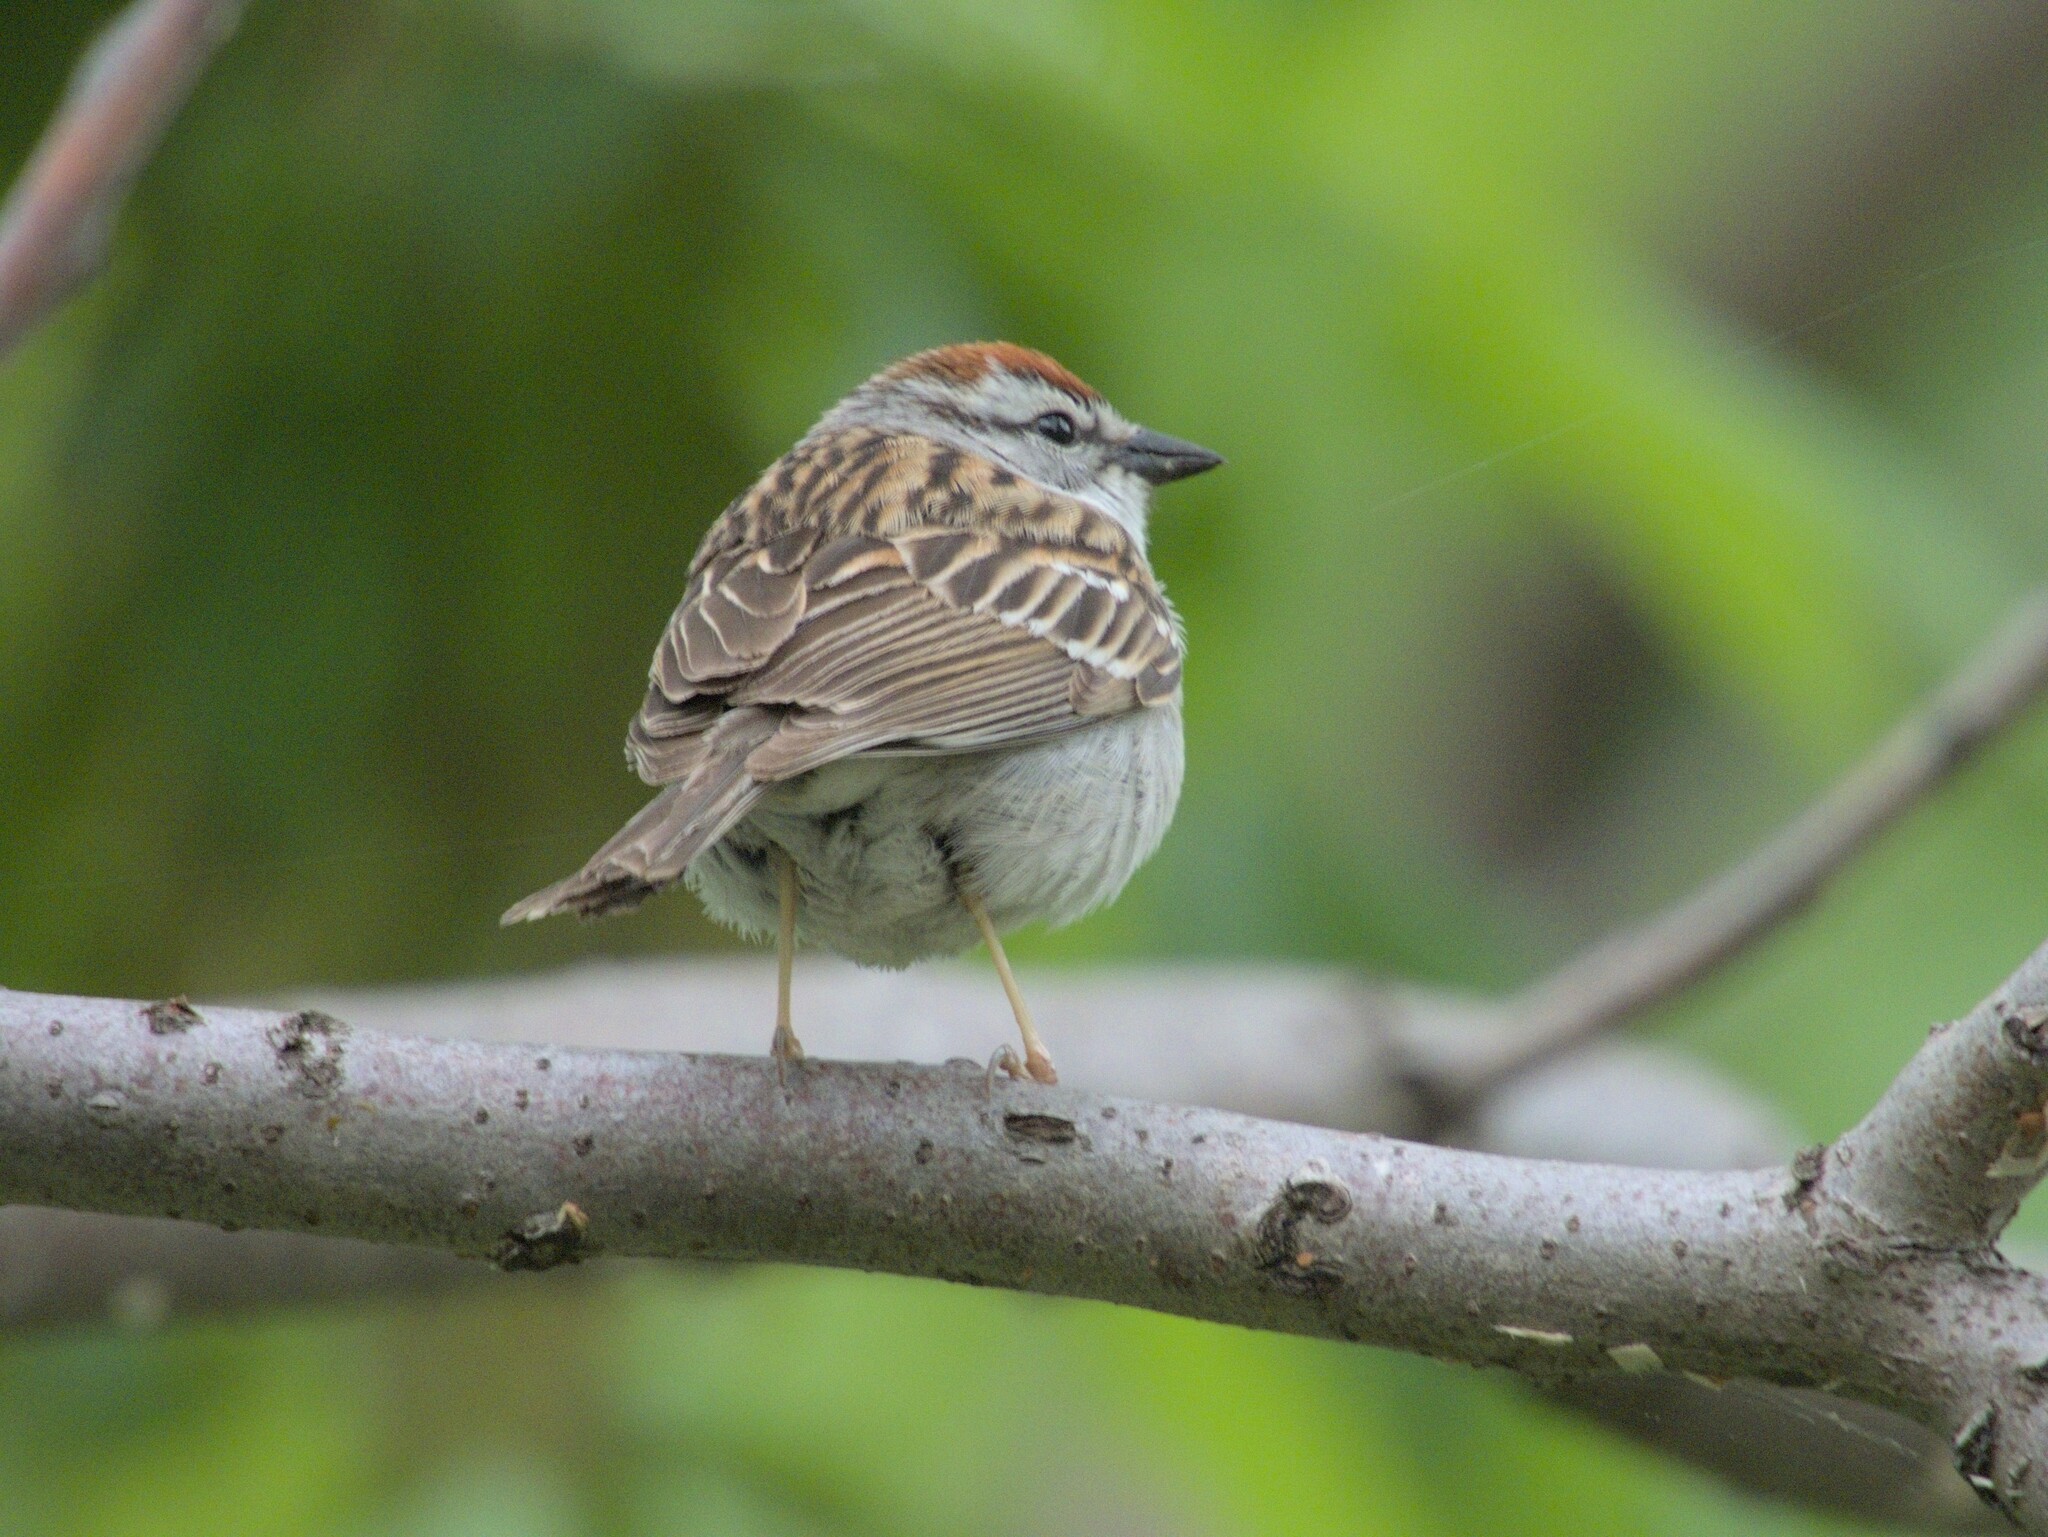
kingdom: Animalia
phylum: Chordata
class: Aves
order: Passeriformes
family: Passerellidae
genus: Spizella
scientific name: Spizella passerina
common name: Chipping sparrow
